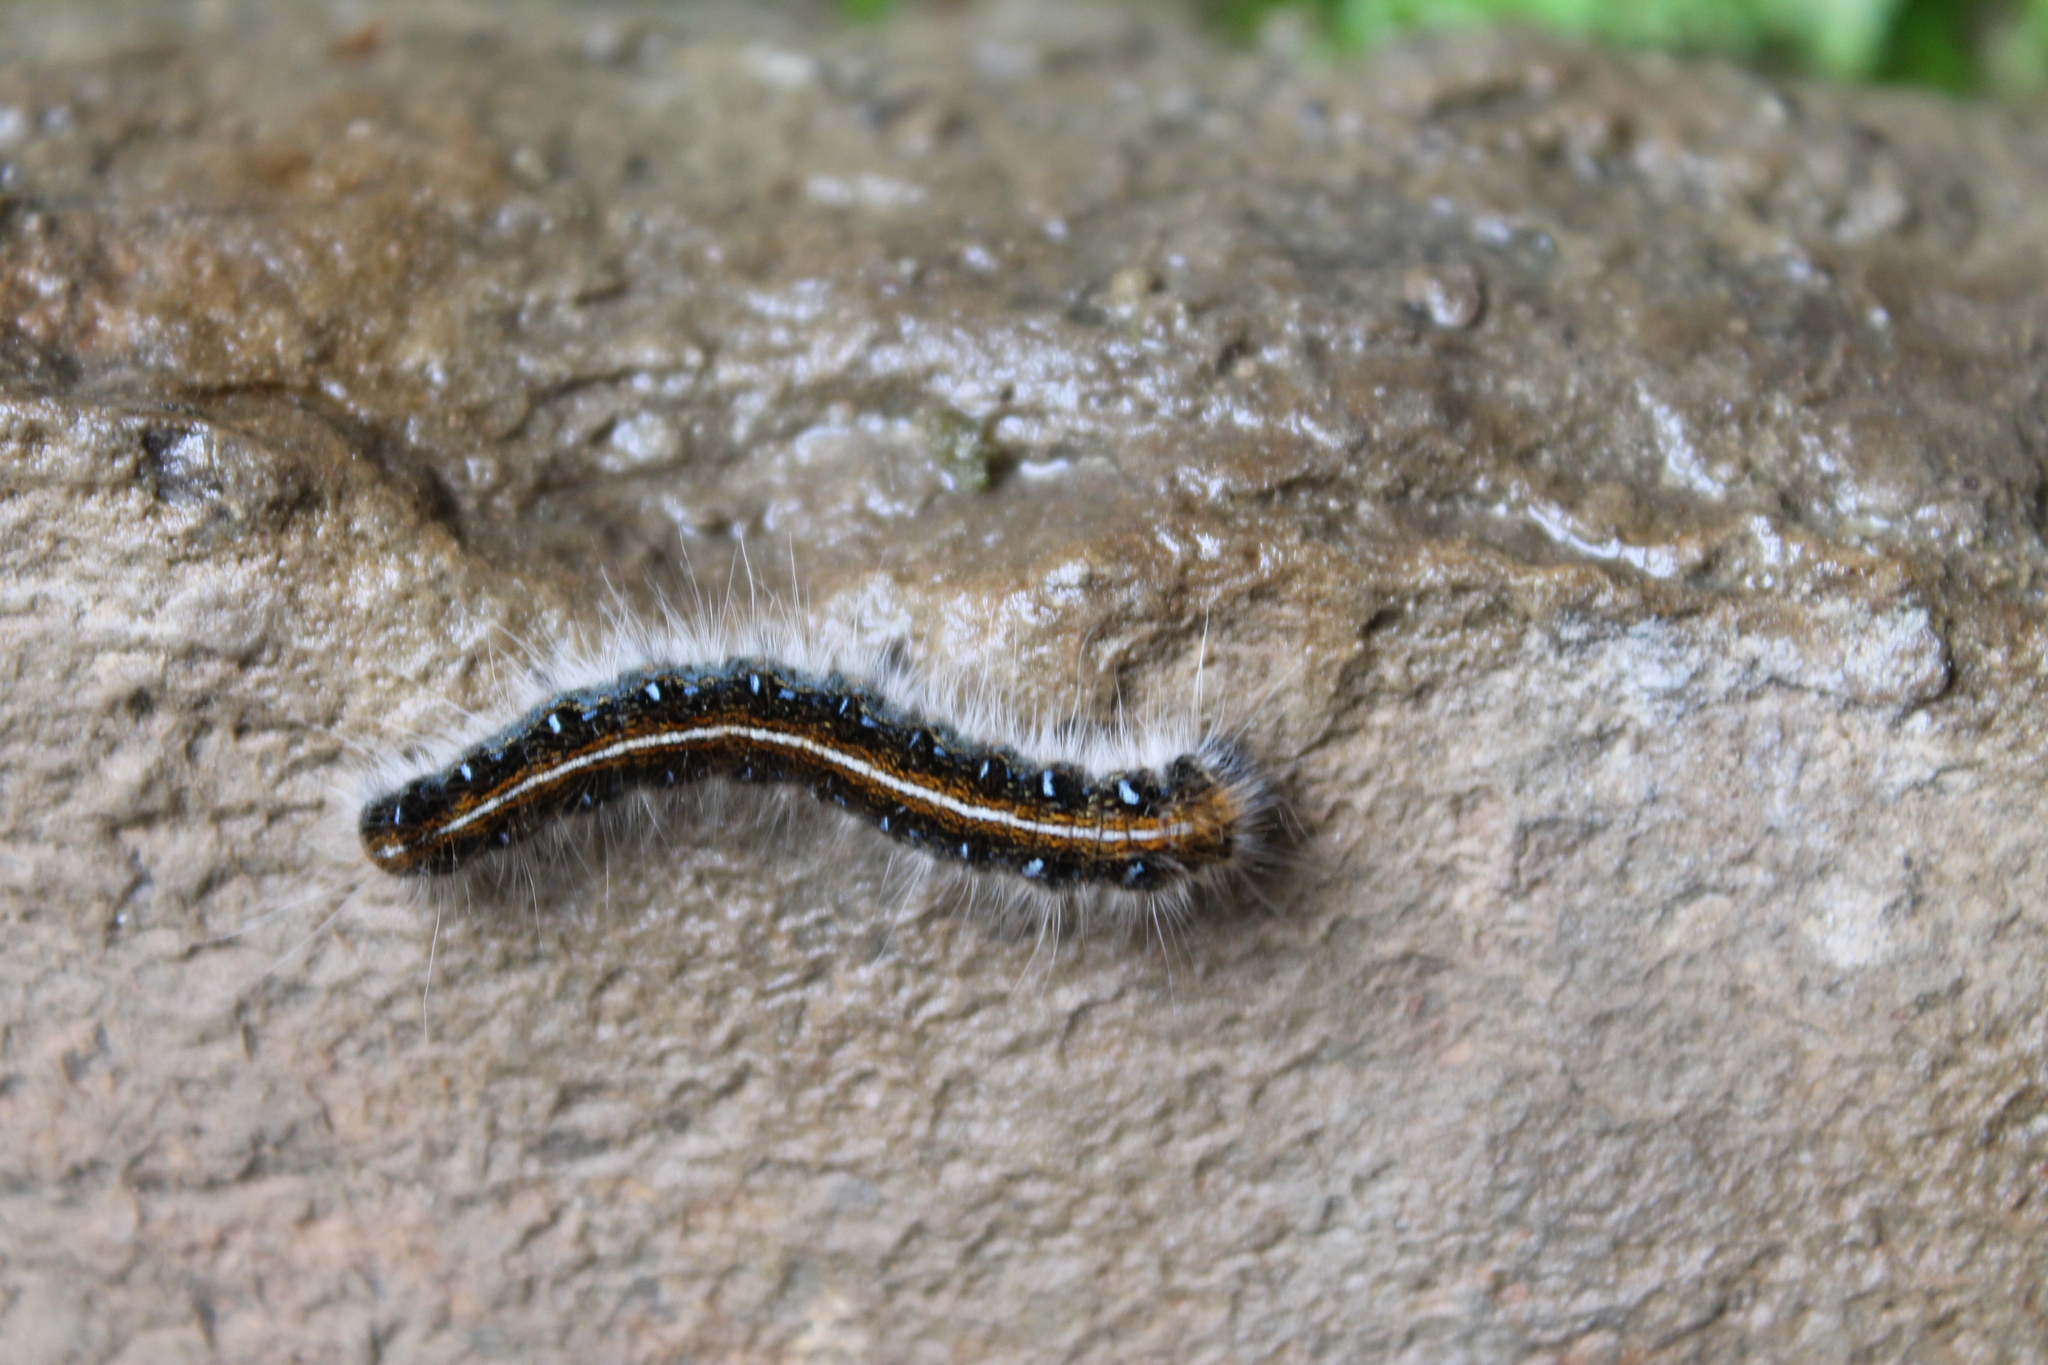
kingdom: Animalia
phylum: Arthropoda
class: Insecta
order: Lepidoptera
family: Lasiocampidae
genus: Malacosoma
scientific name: Malacosoma americana
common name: Eastern tent caterpillar moth
